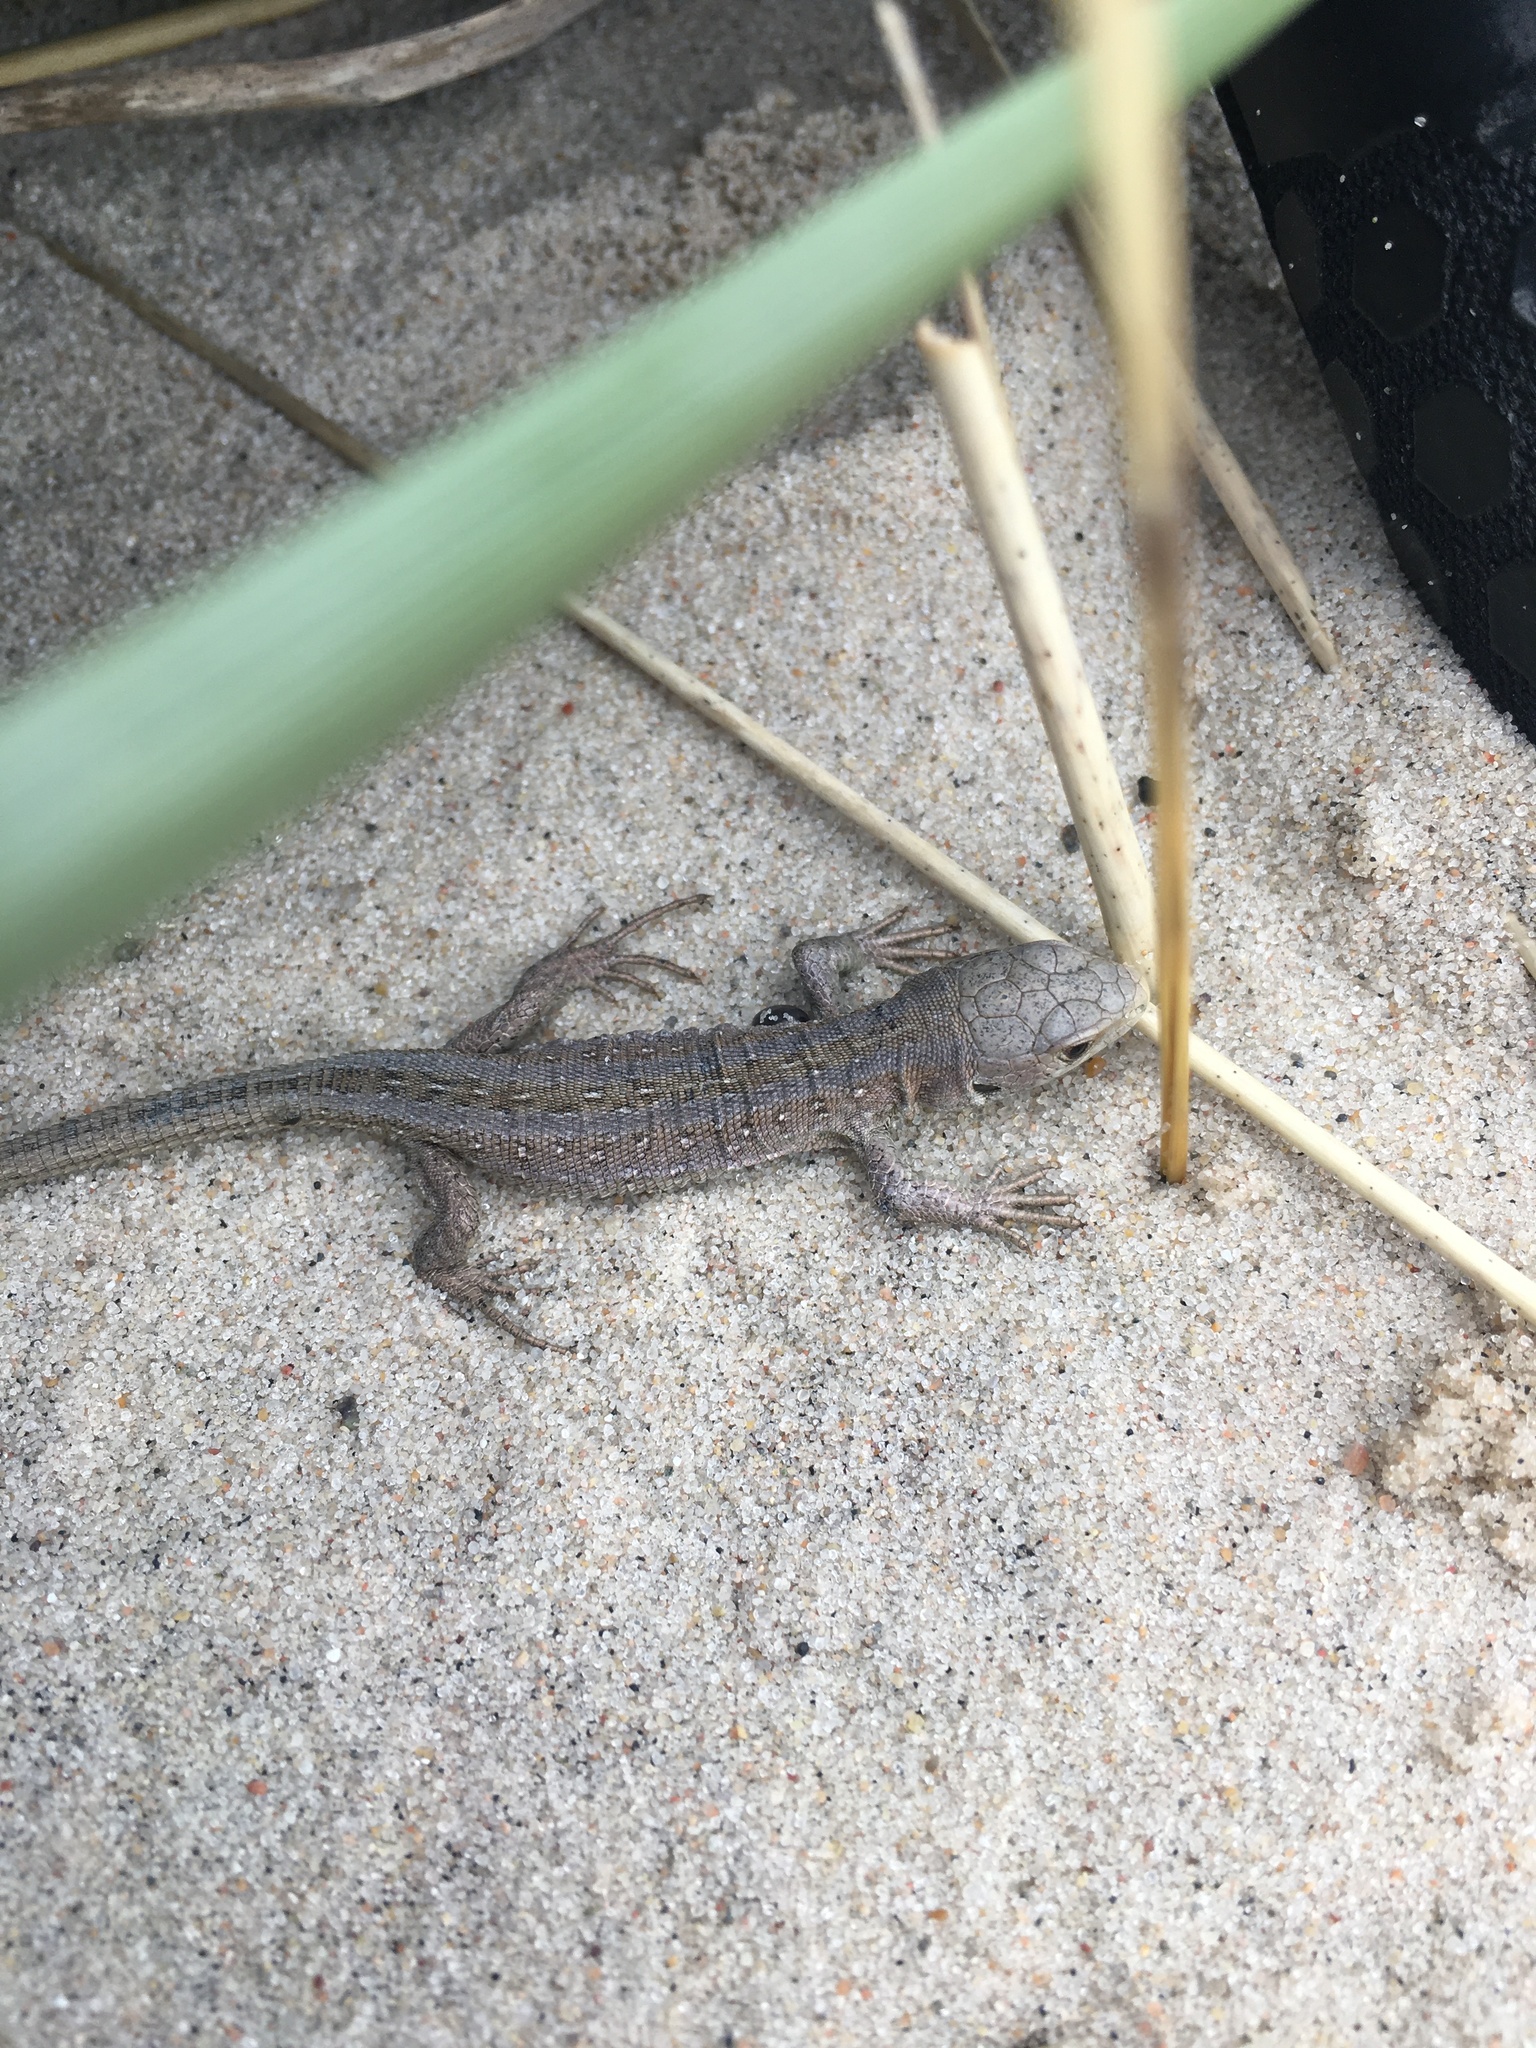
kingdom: Animalia
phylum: Chordata
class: Squamata
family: Lacertidae
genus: Lacerta
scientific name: Lacerta agilis
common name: Sand lizard
